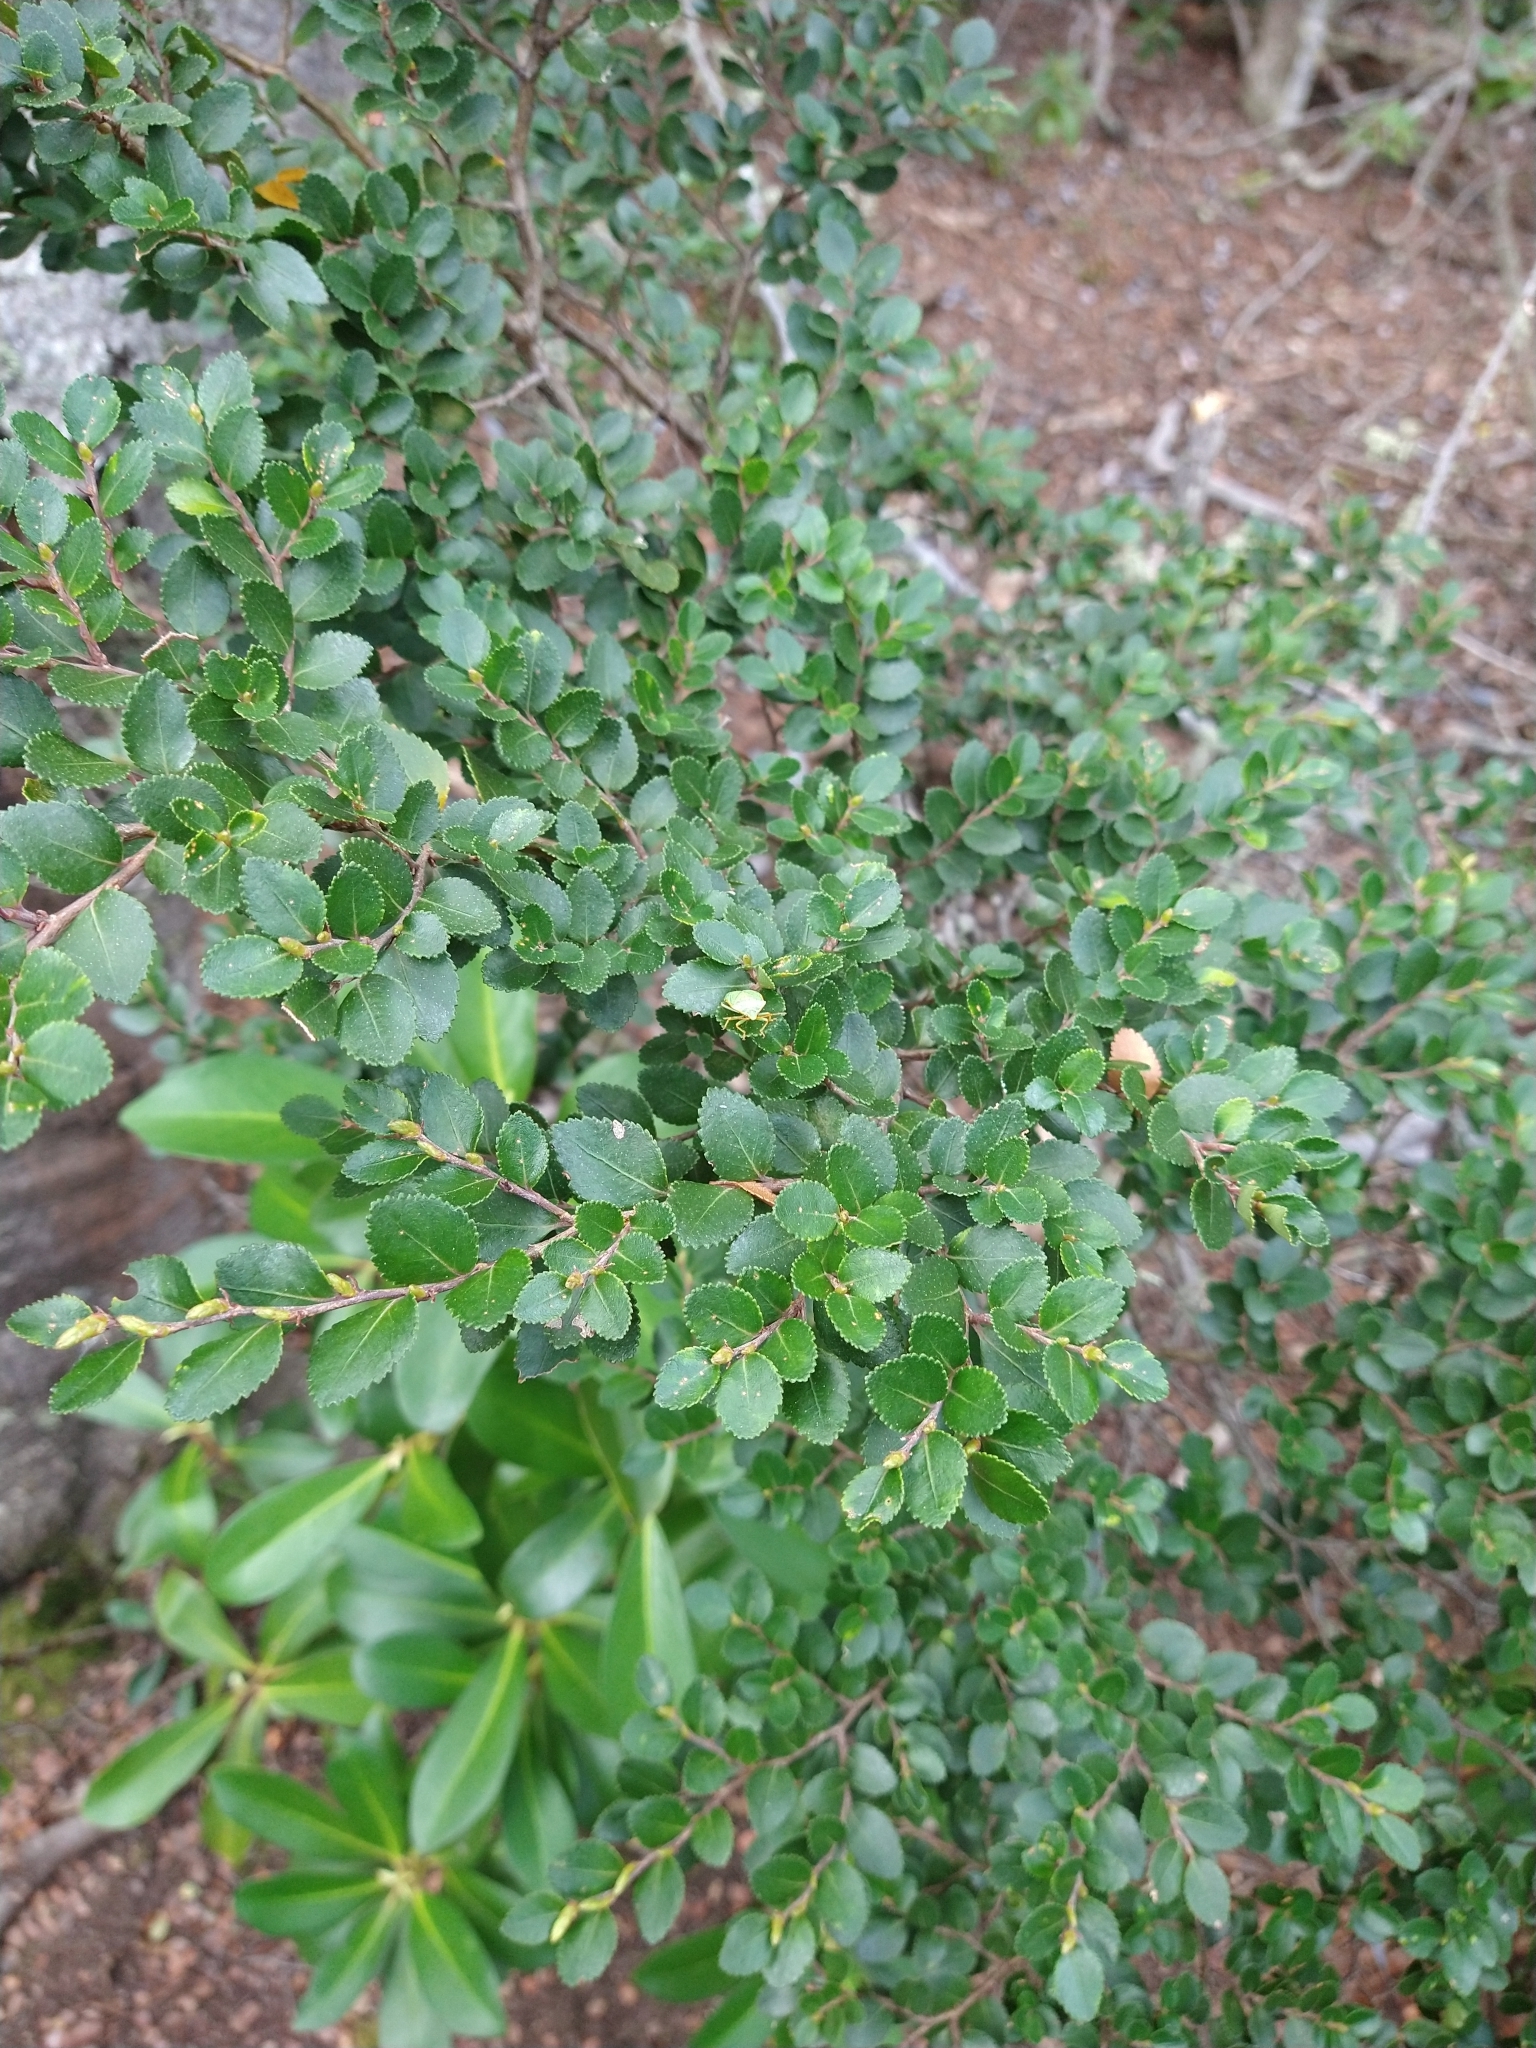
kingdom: Plantae
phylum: Tracheophyta
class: Magnoliopsida
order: Fagales
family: Nothofagaceae
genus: Nothofagus
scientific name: Nothofagus betuloides
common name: Magellan's beech
